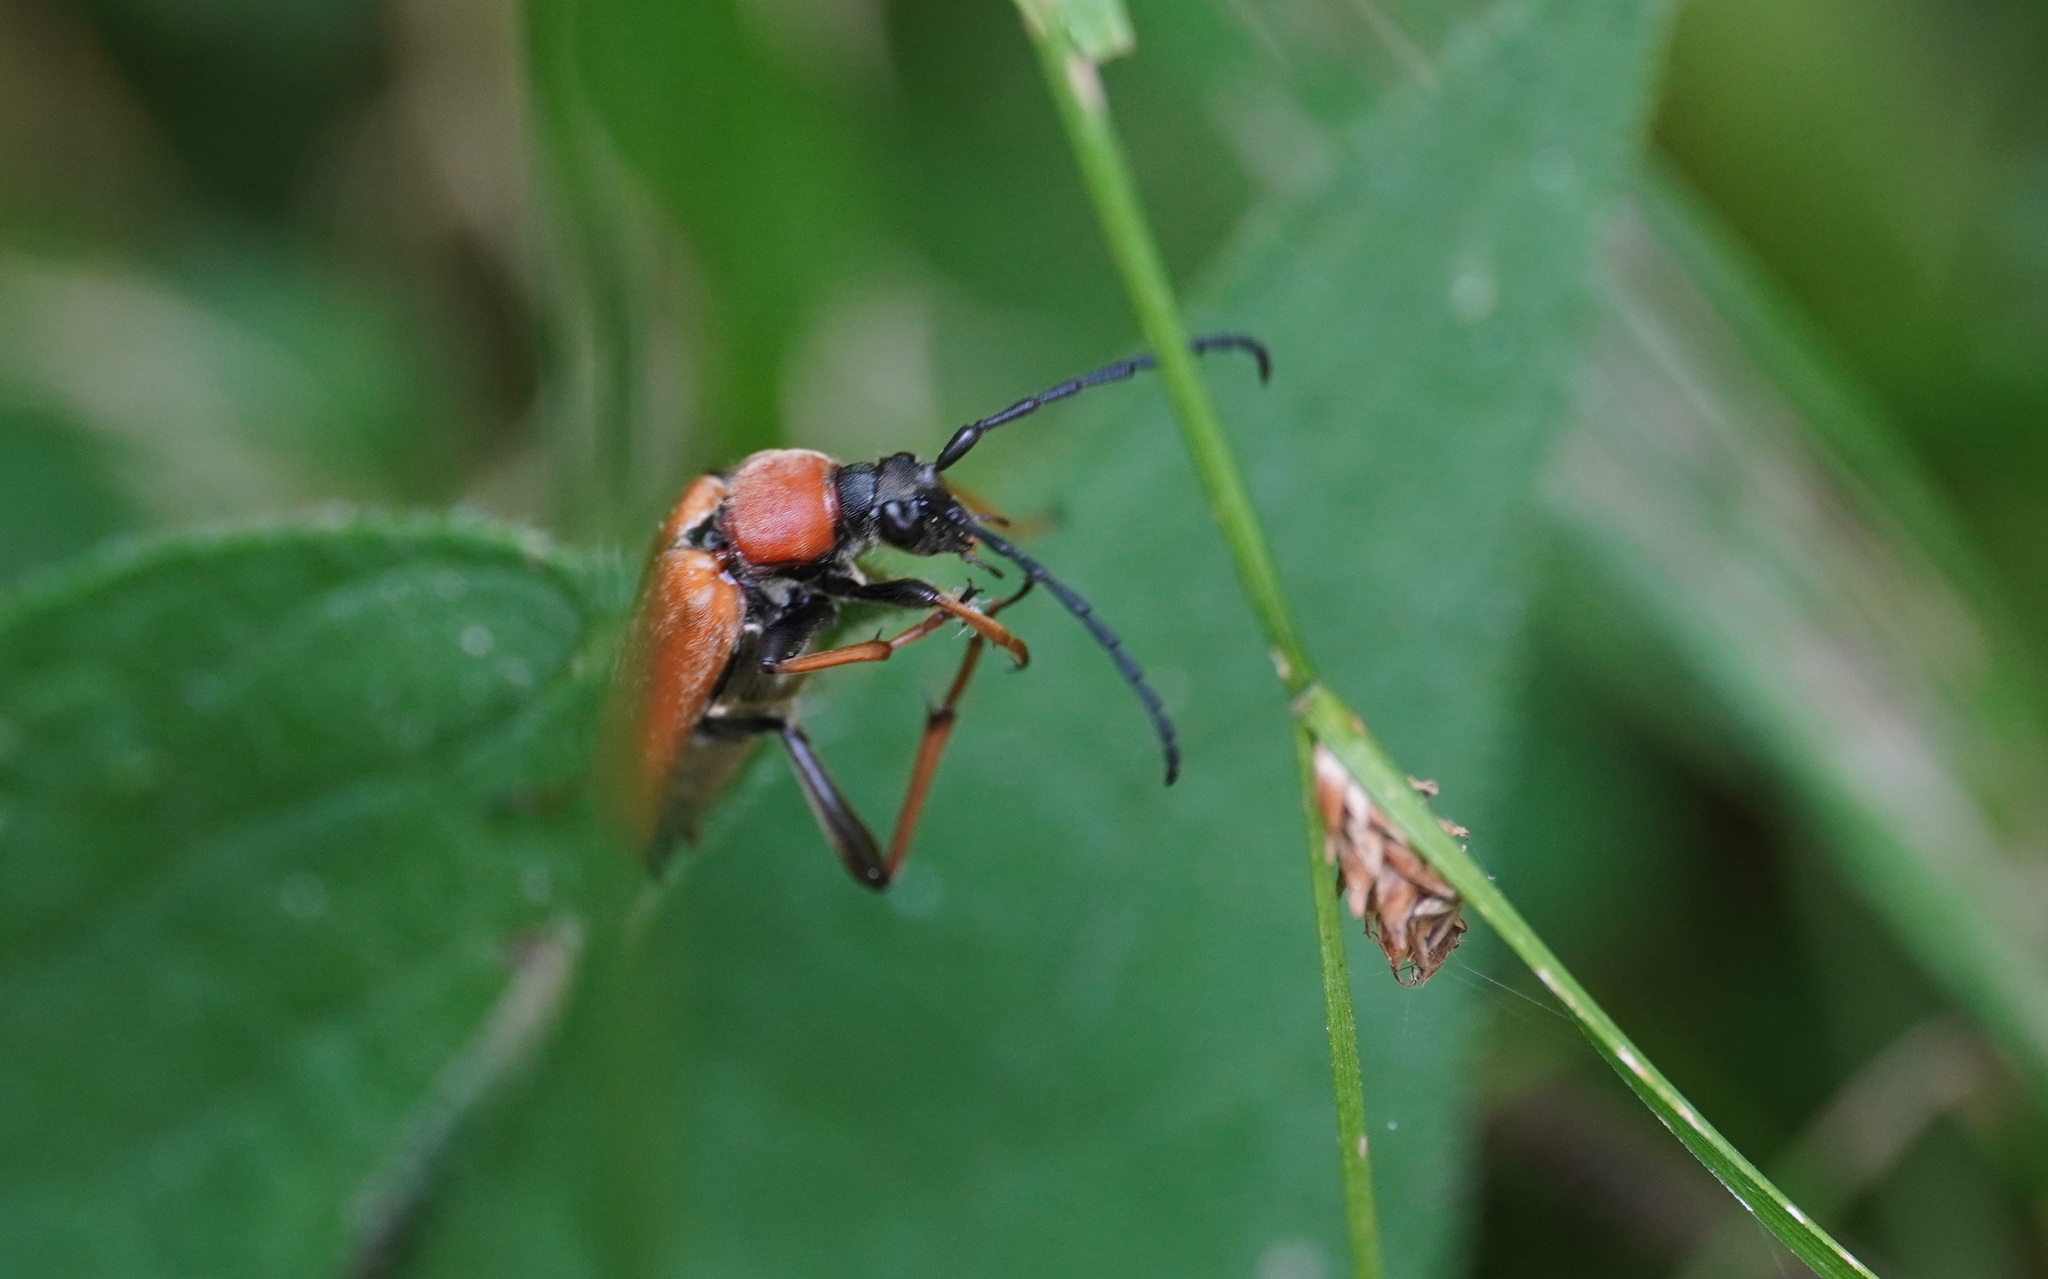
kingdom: Animalia
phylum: Arthropoda
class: Insecta
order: Coleoptera
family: Cerambycidae
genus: Stictoleptura
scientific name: Stictoleptura rubra
